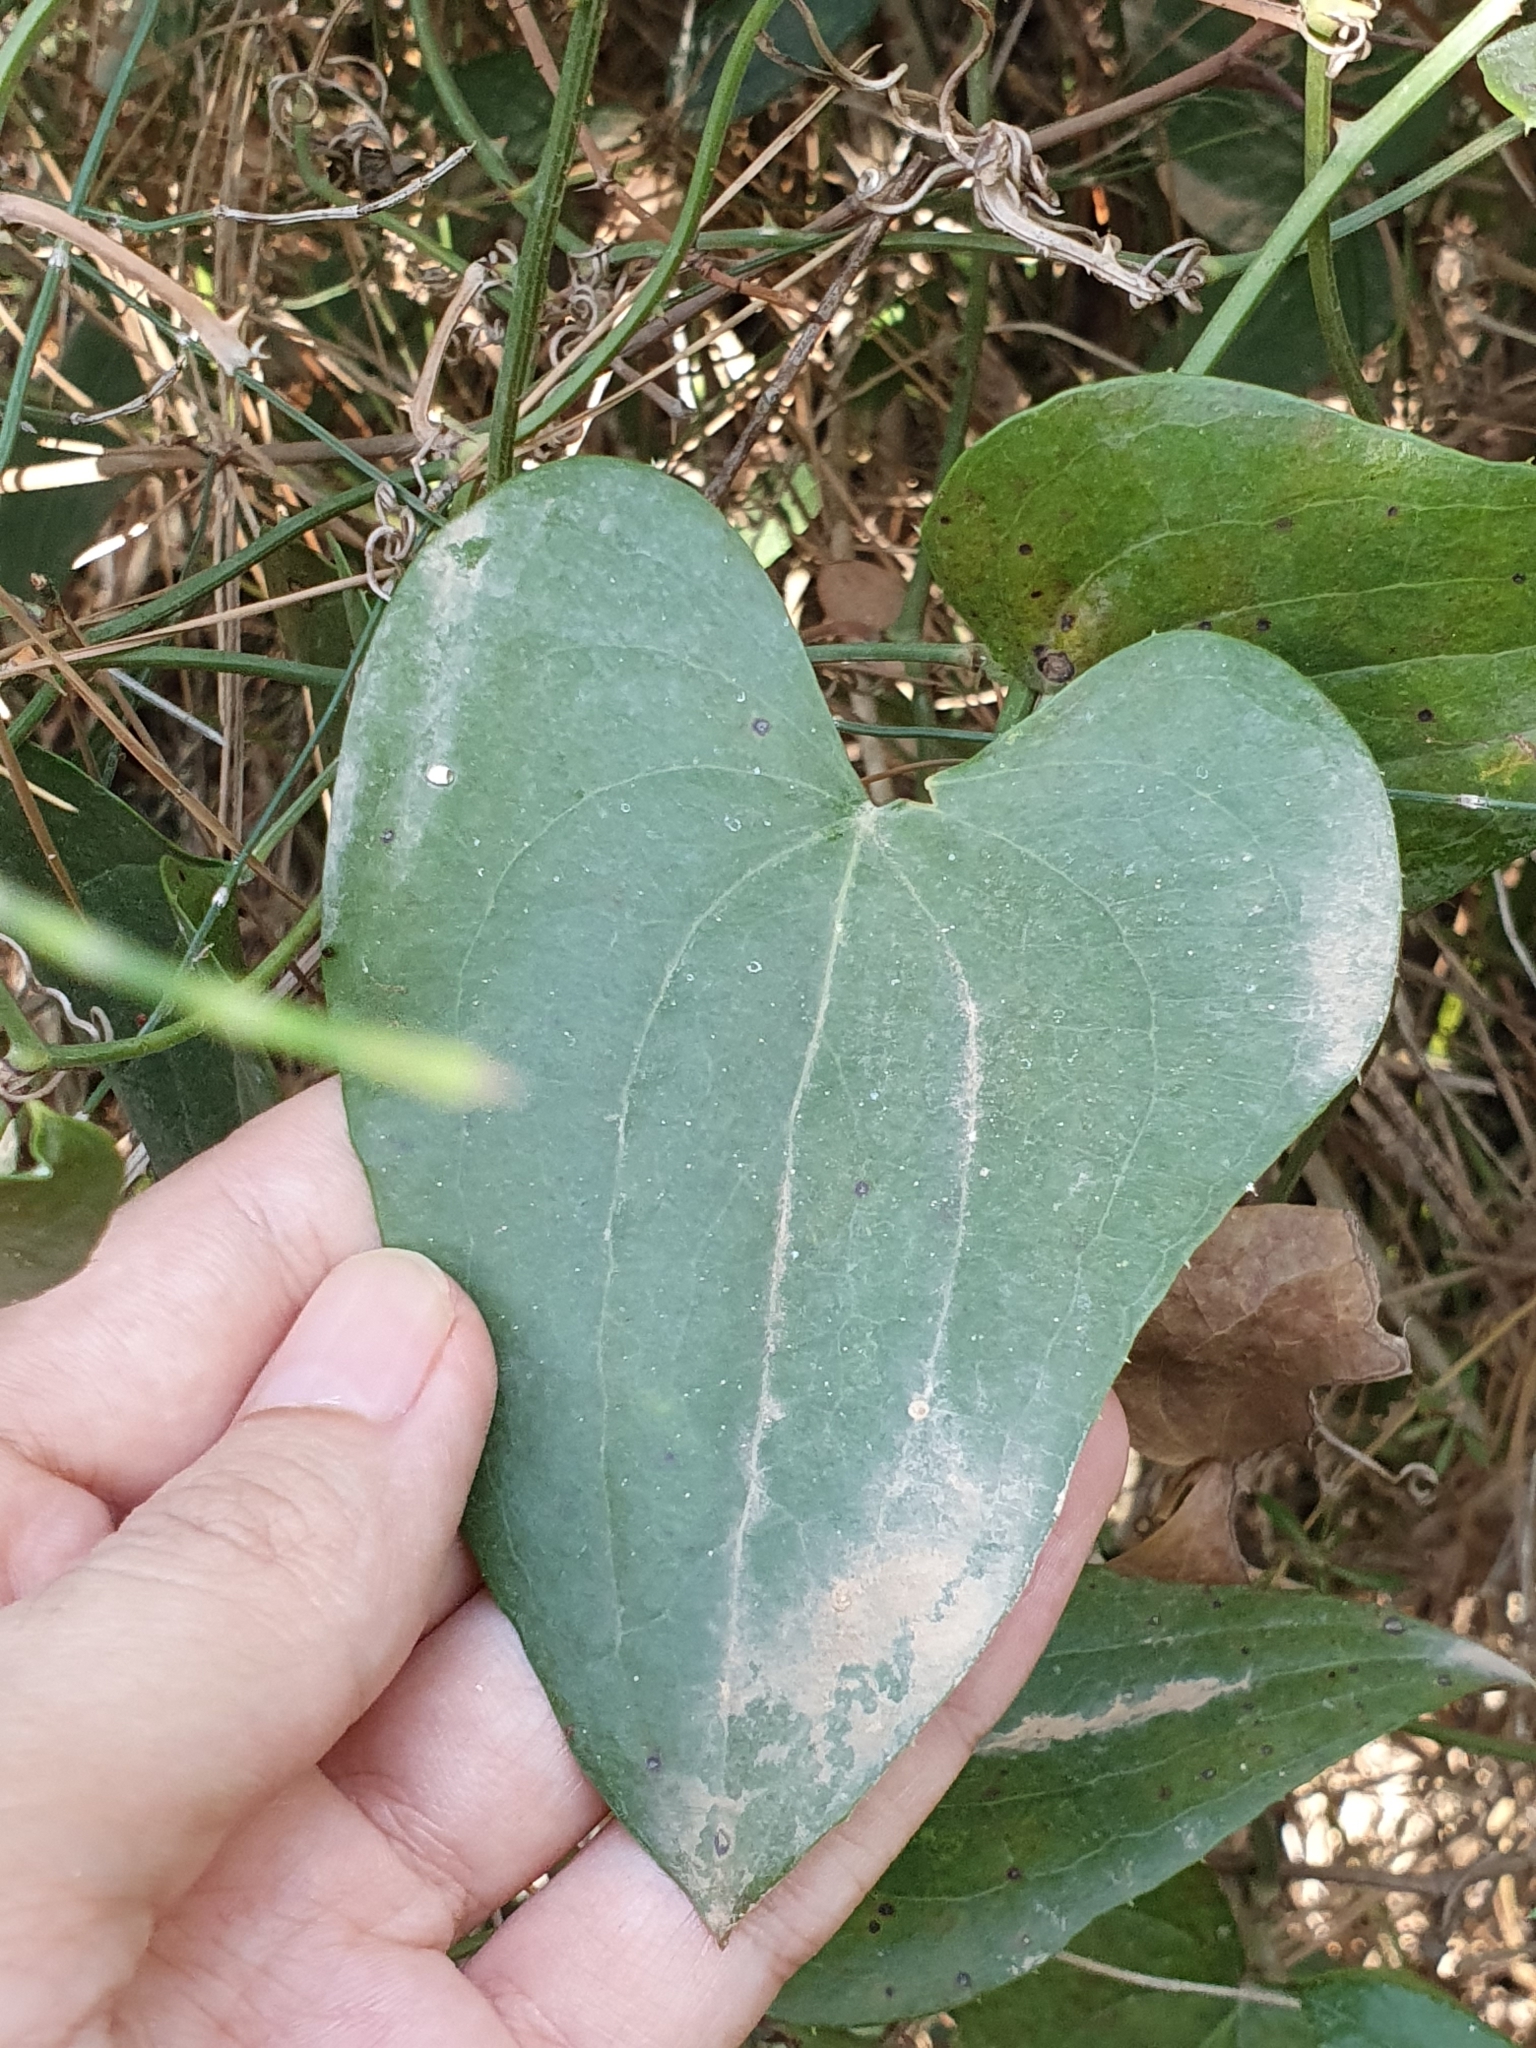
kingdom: Plantae
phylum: Tracheophyta
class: Liliopsida
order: Liliales
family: Smilacaceae
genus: Smilax
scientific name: Smilax aspera
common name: Common smilax
